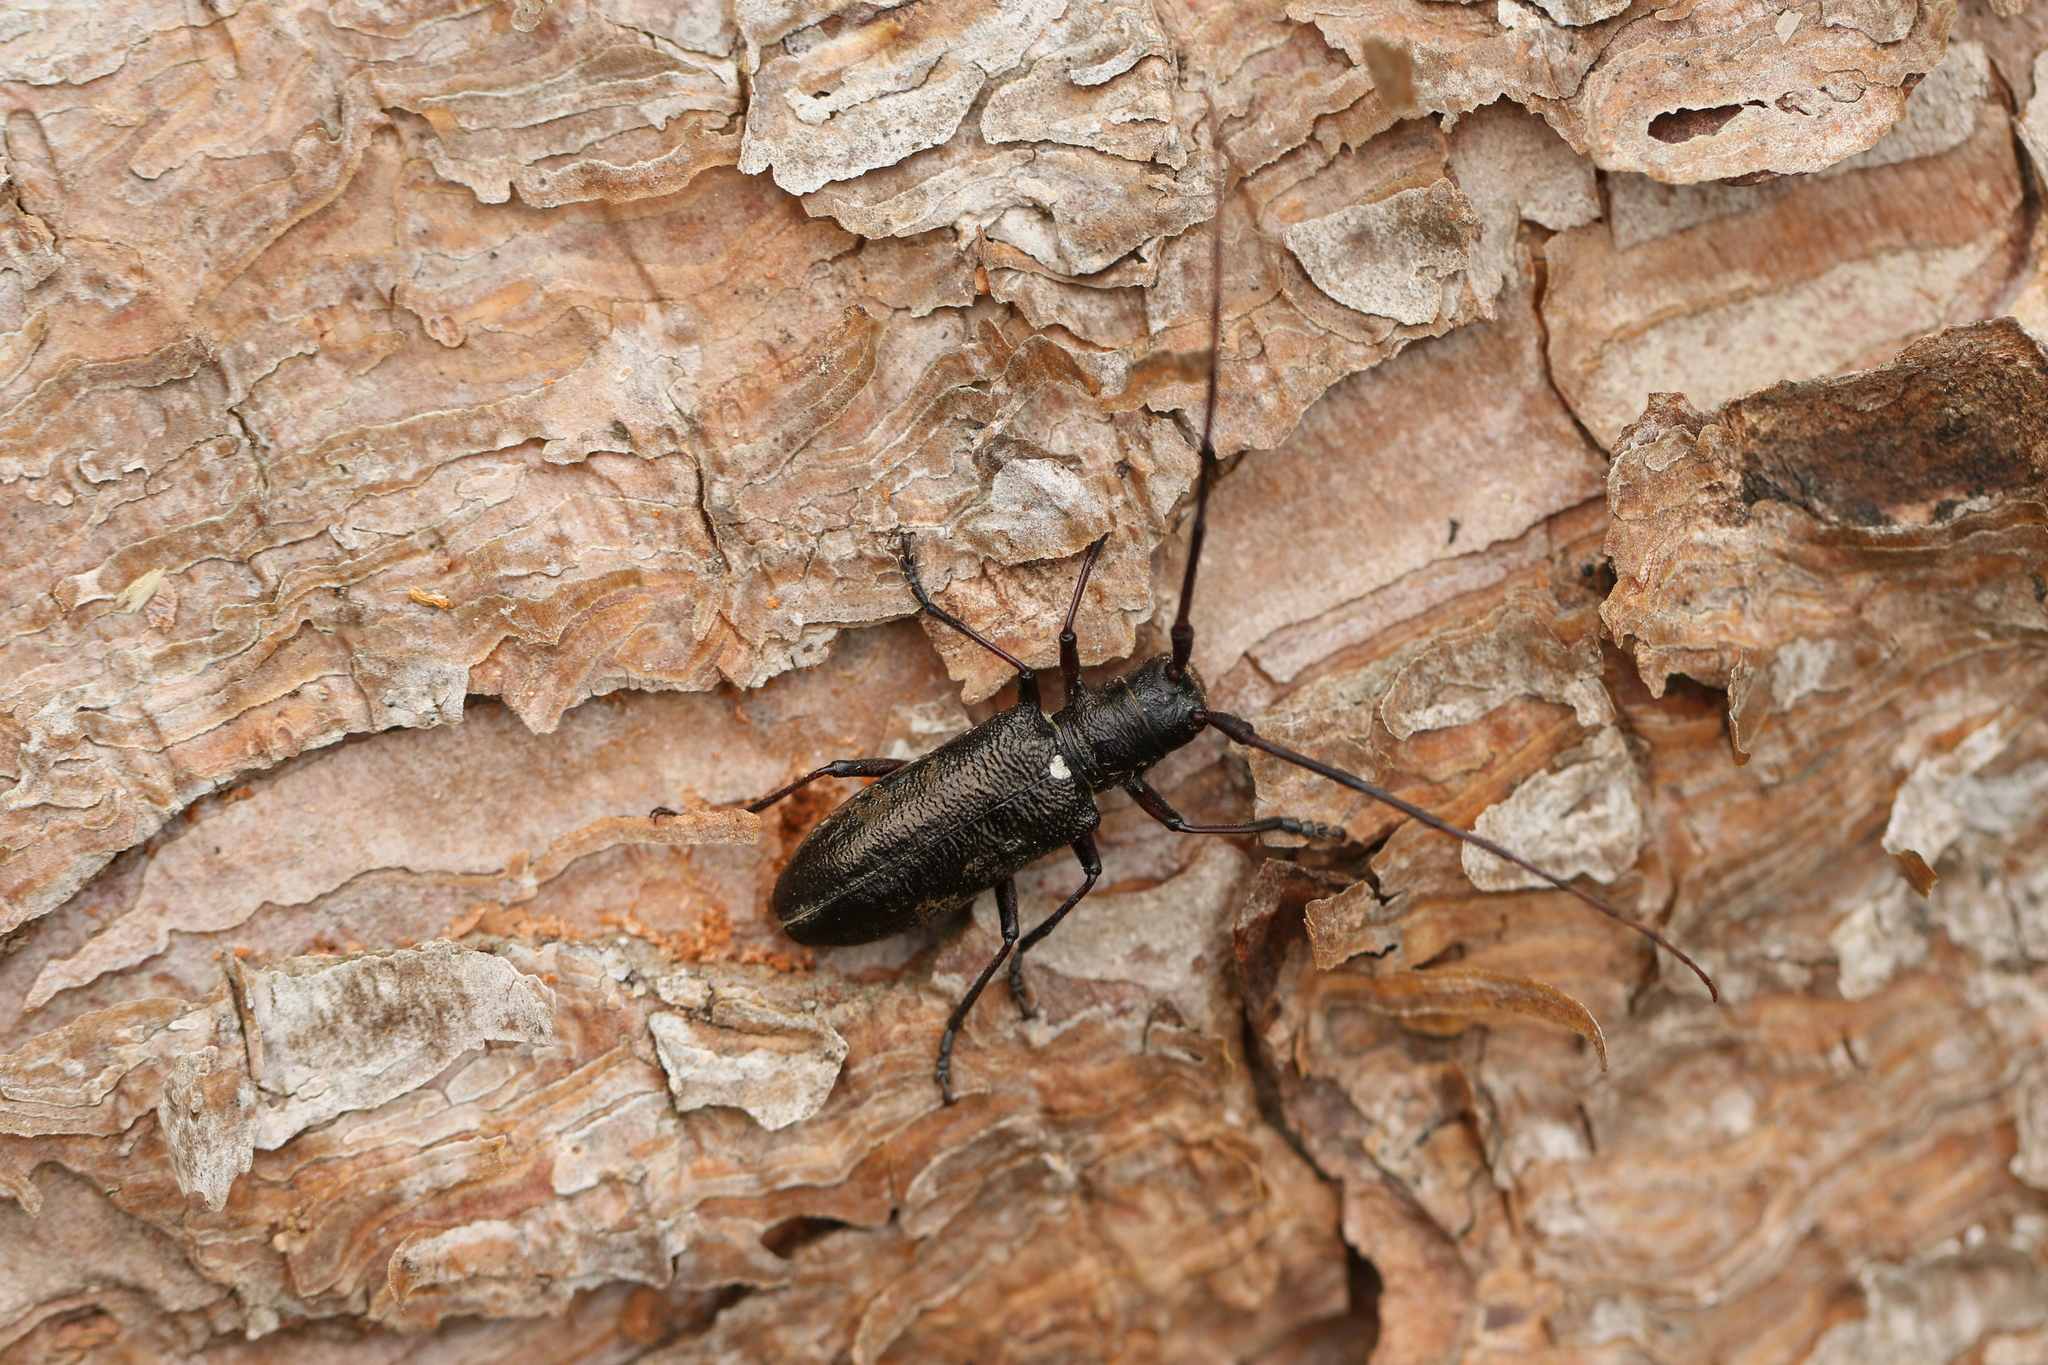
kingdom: Animalia
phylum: Arthropoda
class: Insecta
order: Coleoptera
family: Cerambycidae
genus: Monochamus
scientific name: Monochamus scutellatus
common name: White-spotted sawyer beetle
